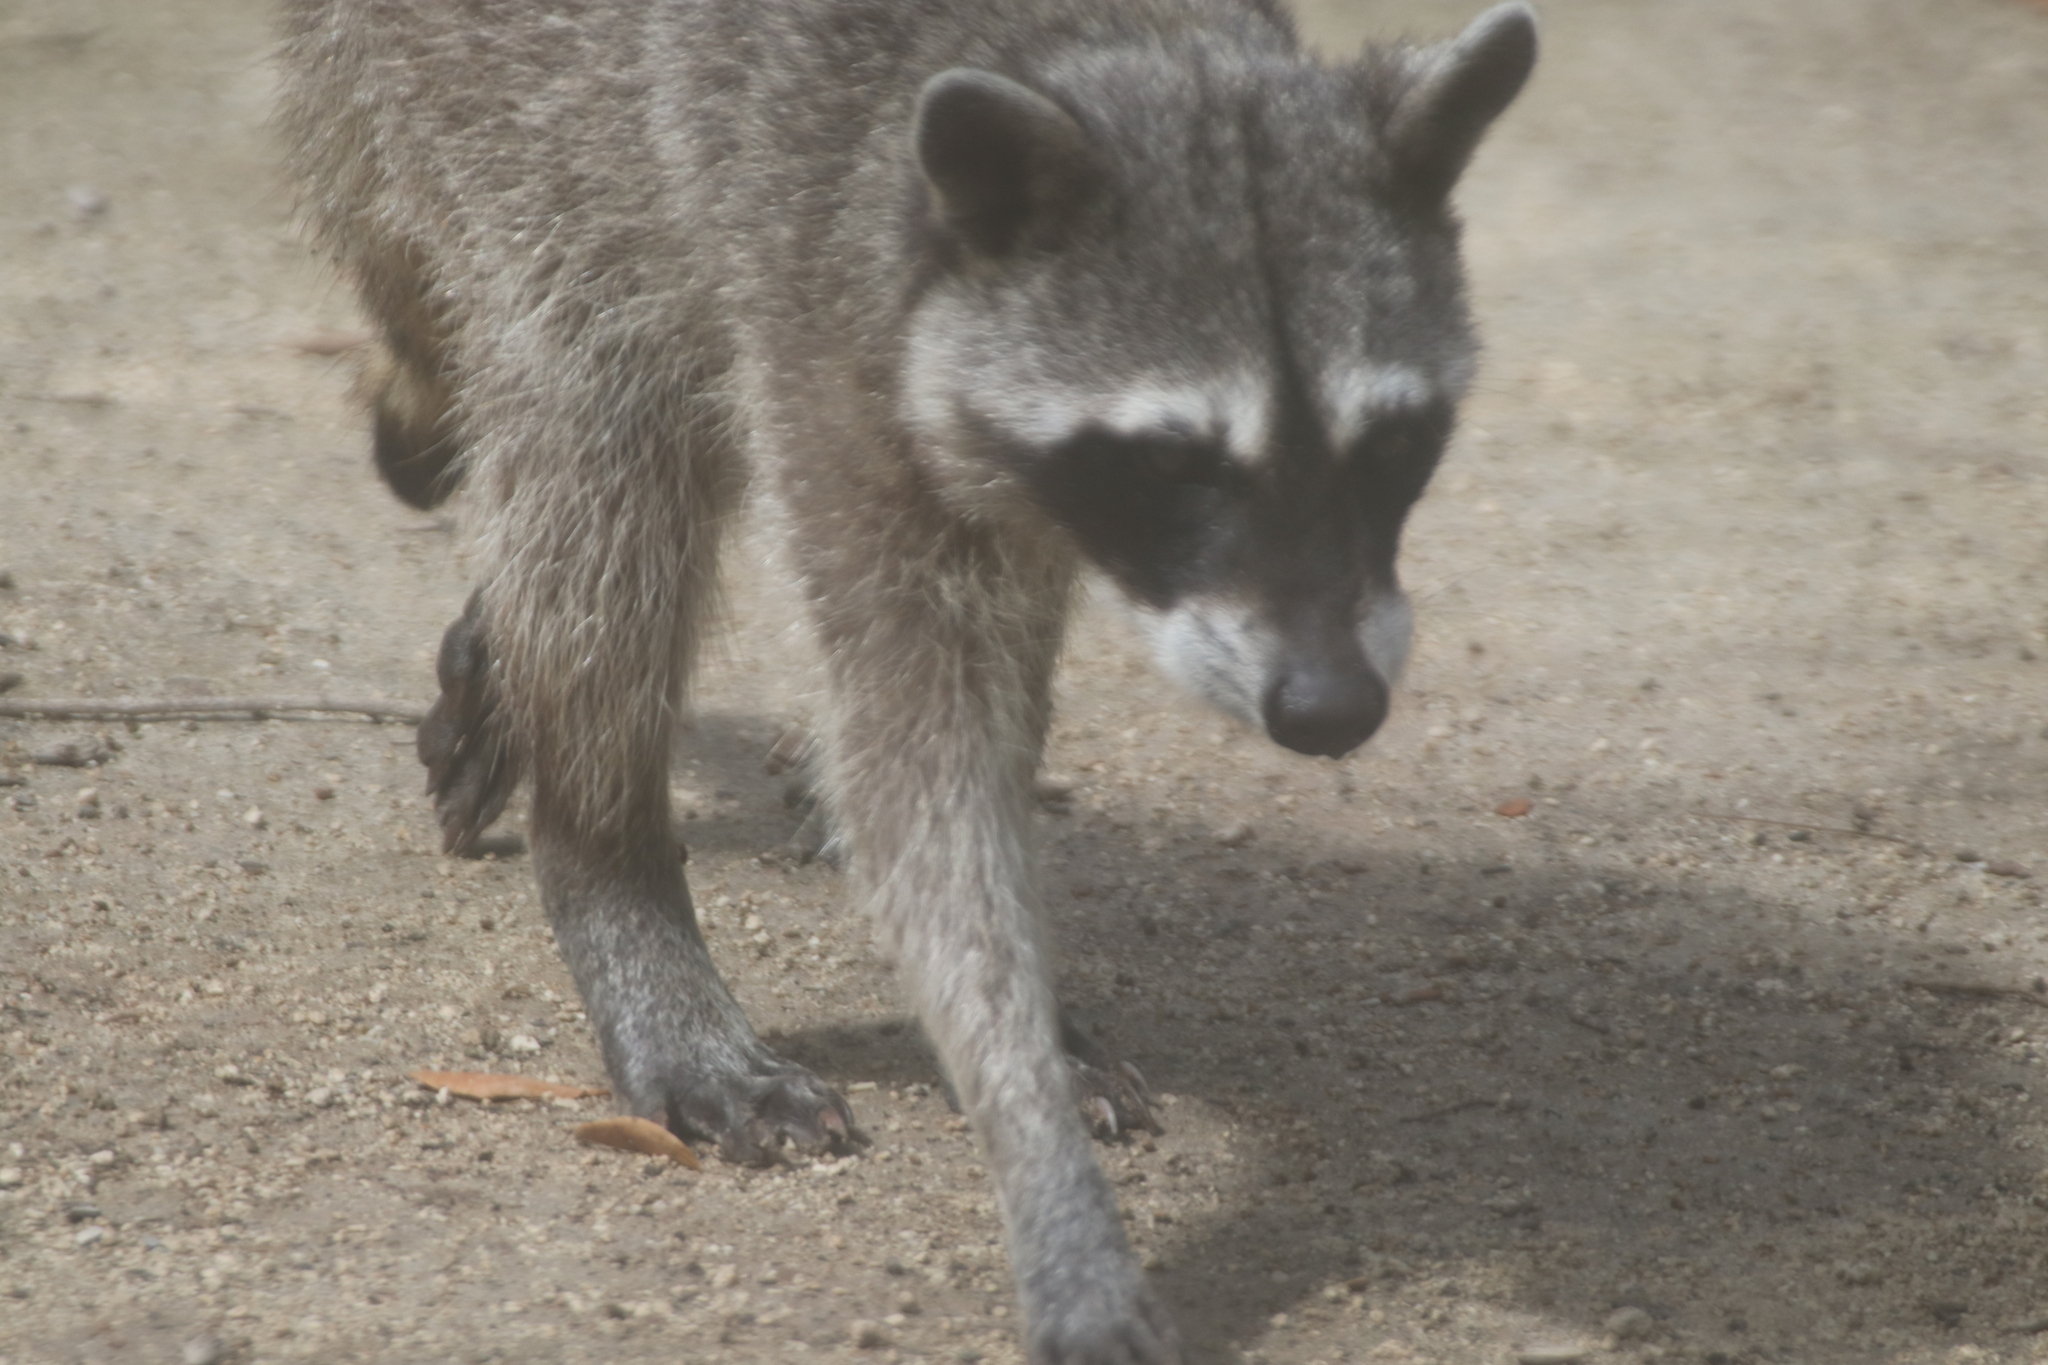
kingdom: Animalia
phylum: Chordata
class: Mammalia
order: Carnivora
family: Procyonidae
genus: Procyon
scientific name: Procyon lotor
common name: Raccoon
